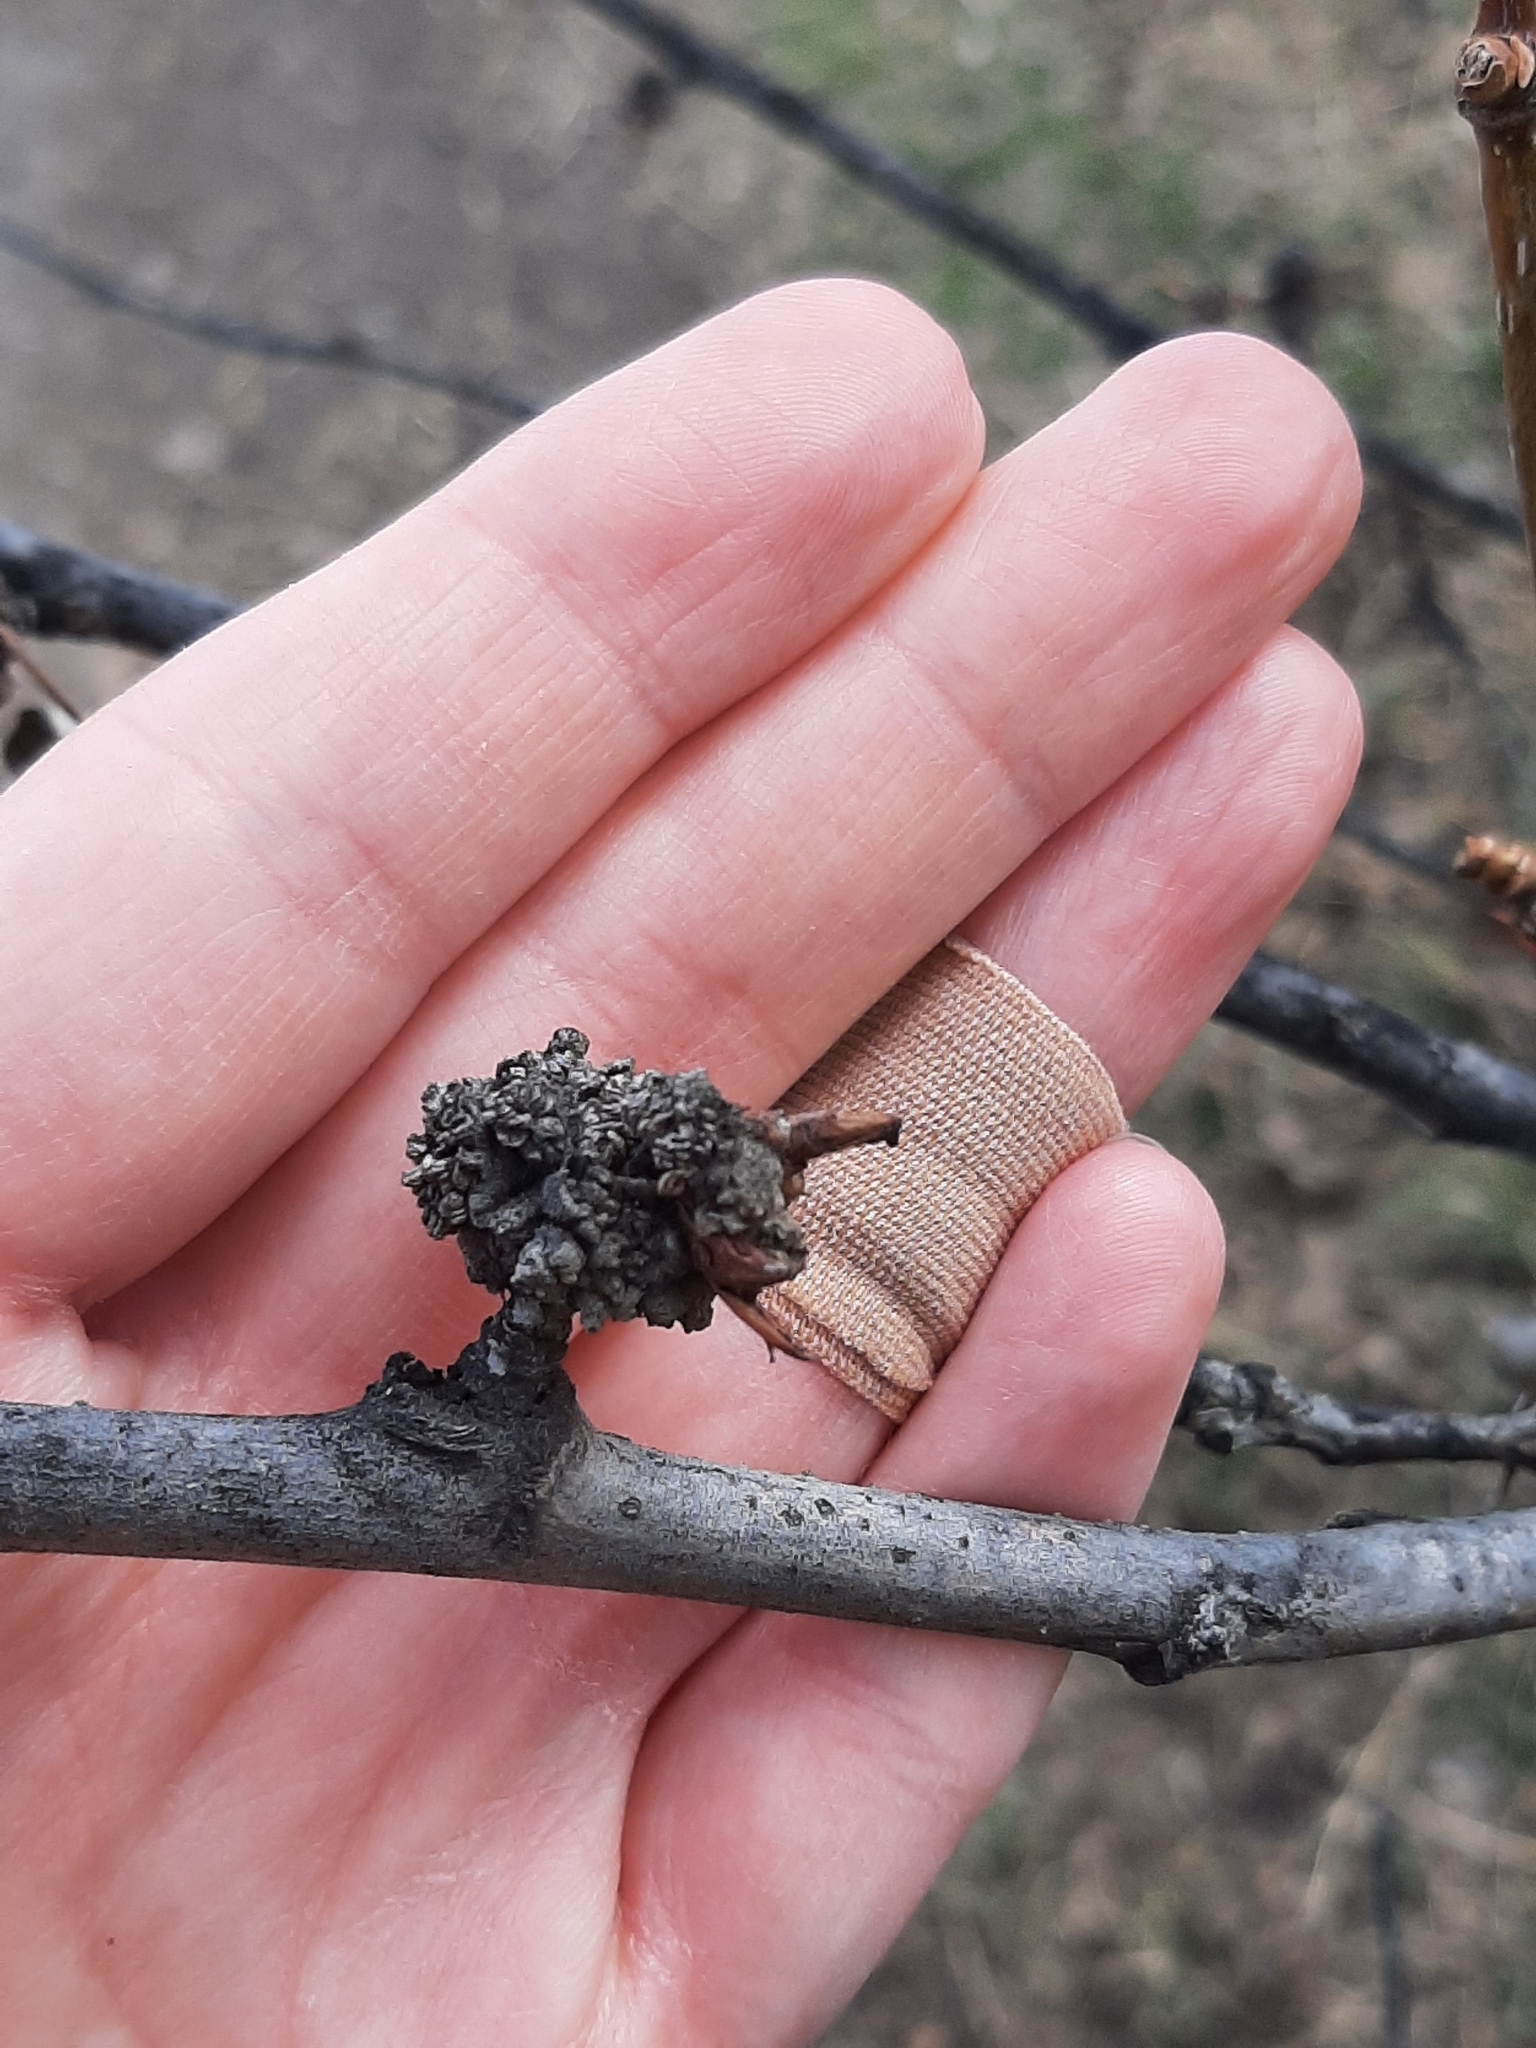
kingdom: Animalia
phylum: Arthropoda
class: Arachnida
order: Trombidiformes
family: Eriophyidae
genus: Aceria
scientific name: Aceria
